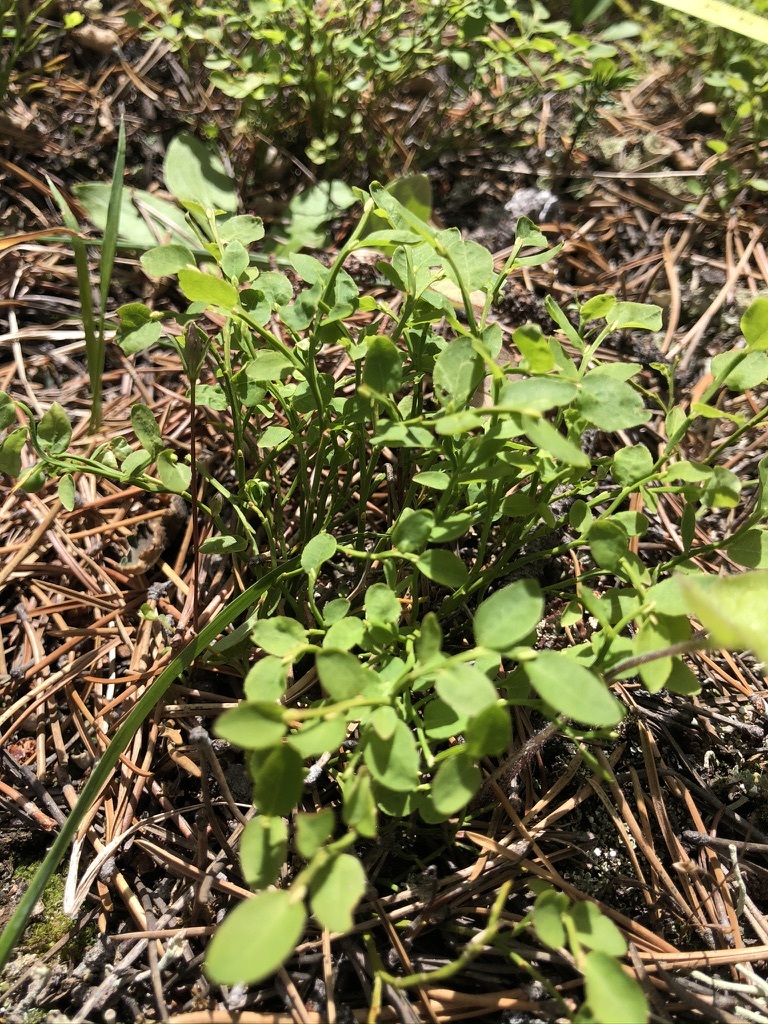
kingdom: Plantae
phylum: Tracheophyta
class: Magnoliopsida
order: Ericales
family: Ericaceae
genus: Vaccinium
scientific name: Vaccinium scoparium
